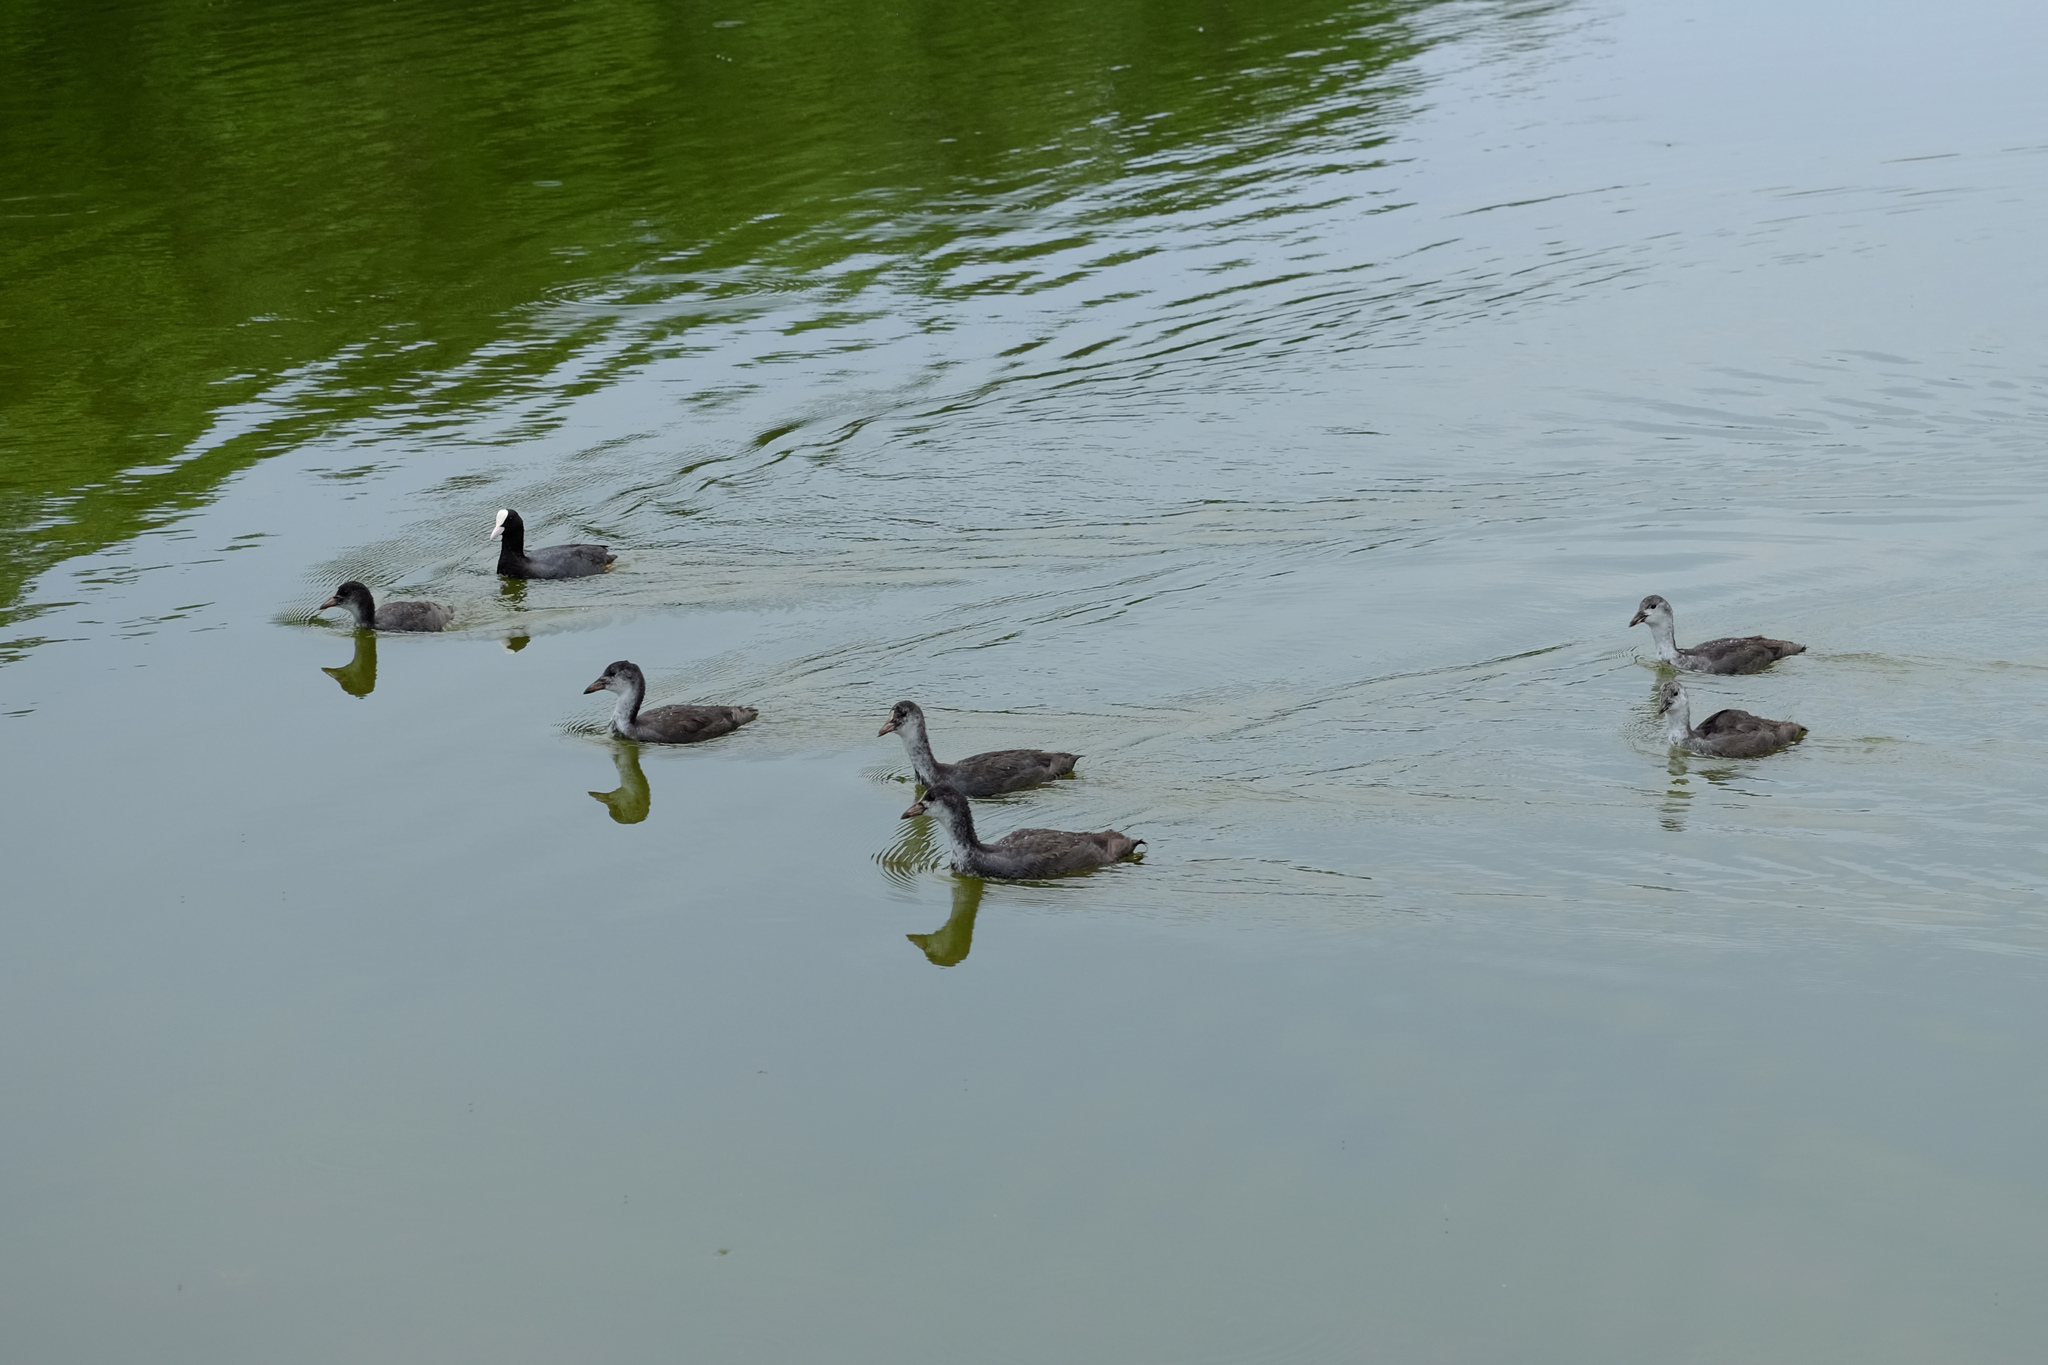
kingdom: Animalia
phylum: Chordata
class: Aves
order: Gruiformes
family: Rallidae
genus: Fulica
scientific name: Fulica atra
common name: Eurasian coot
